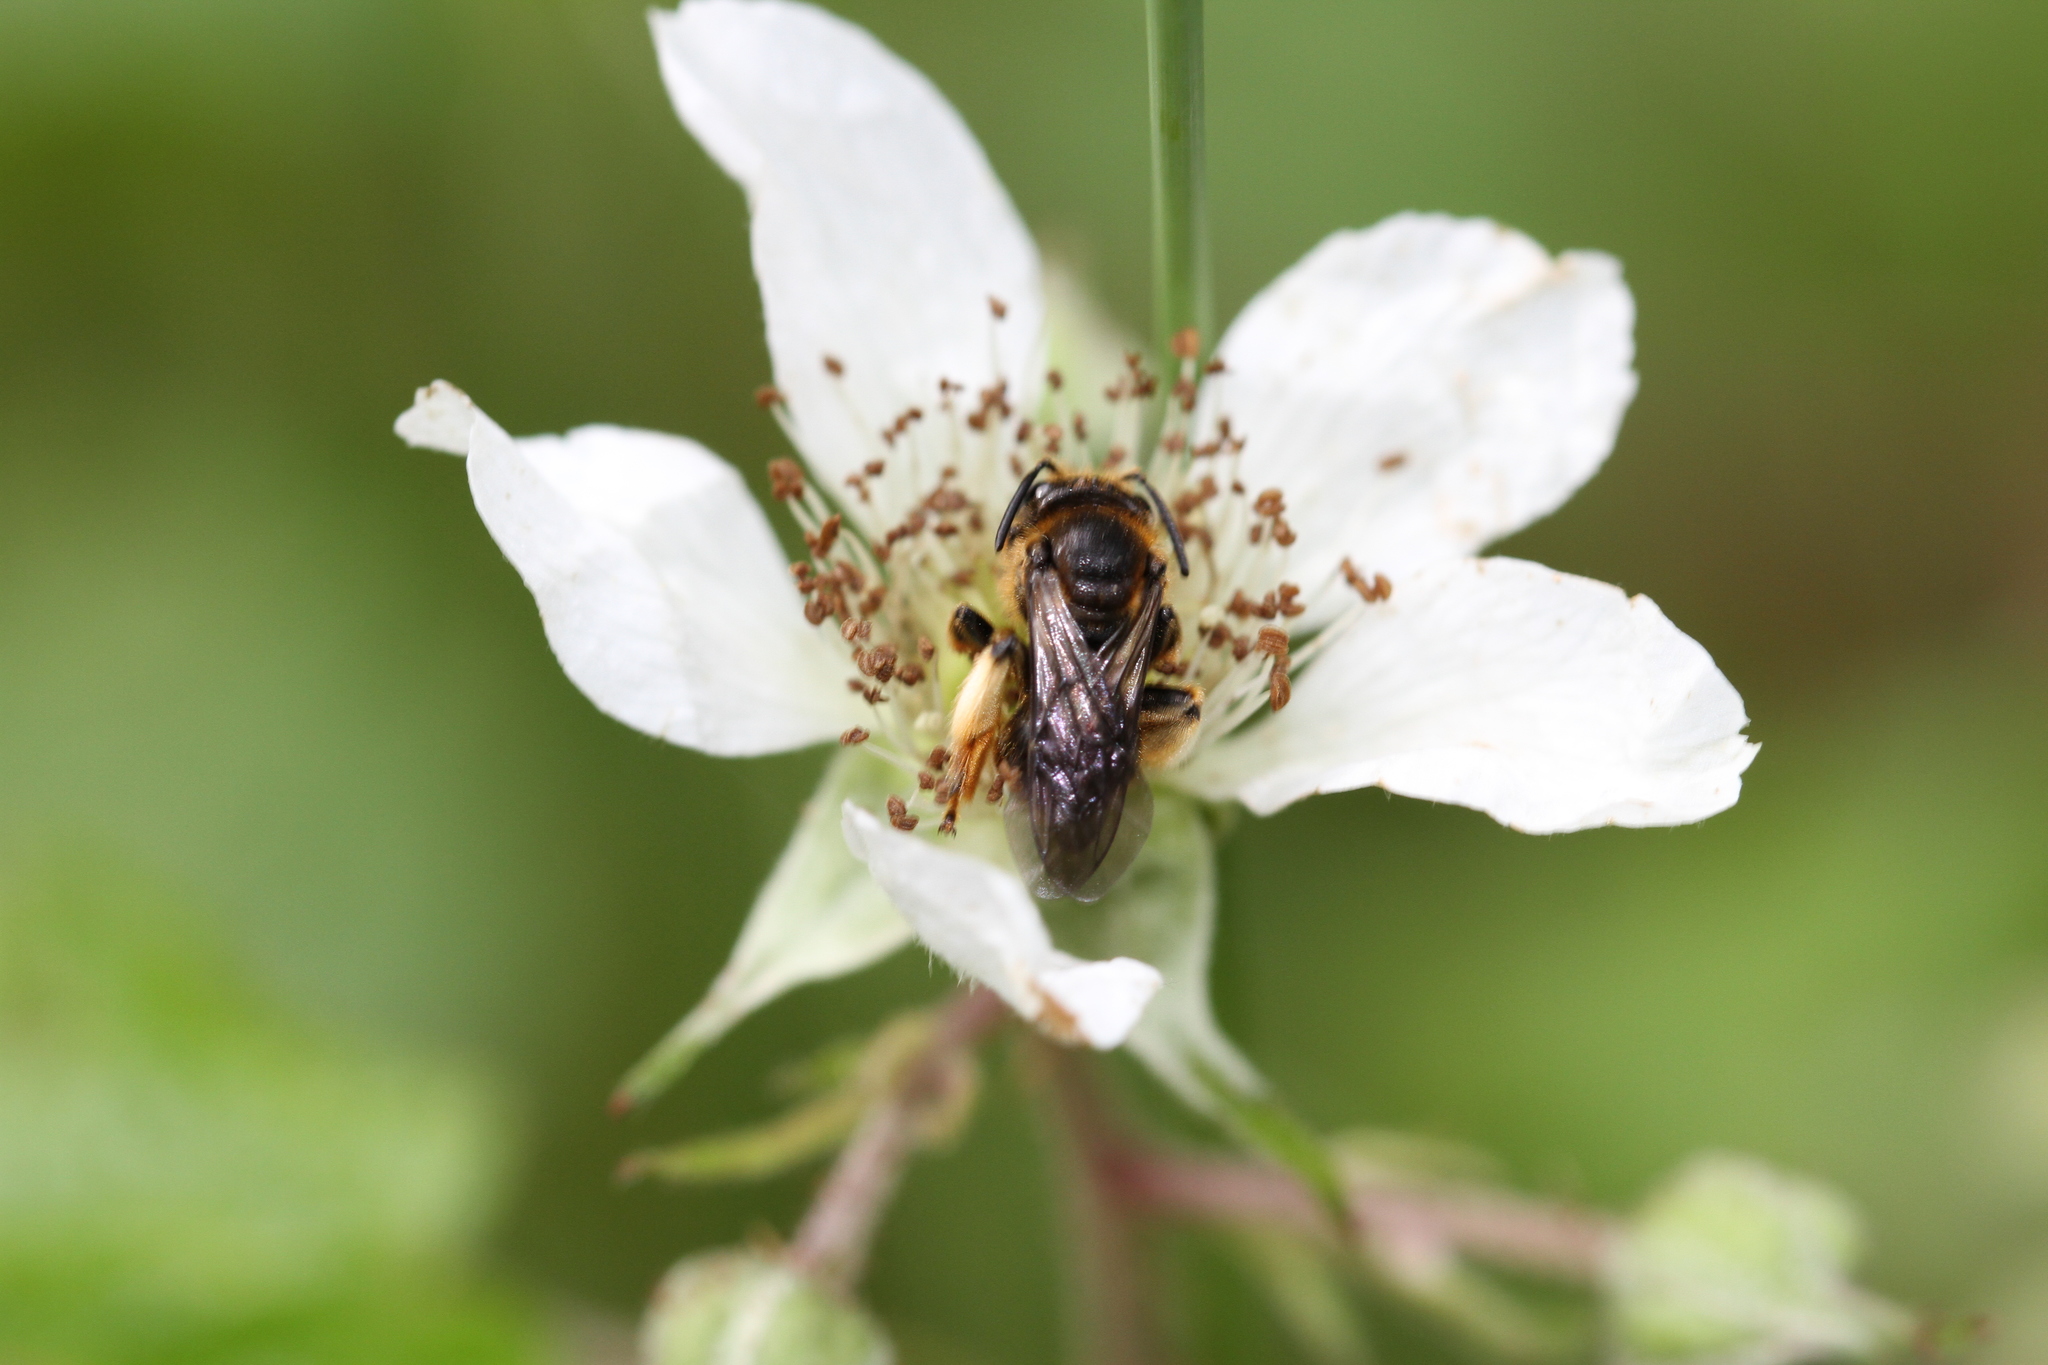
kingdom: Animalia
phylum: Arthropoda
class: Insecta
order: Hymenoptera
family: Melittidae
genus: Macropis
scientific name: Macropis fulvipes
